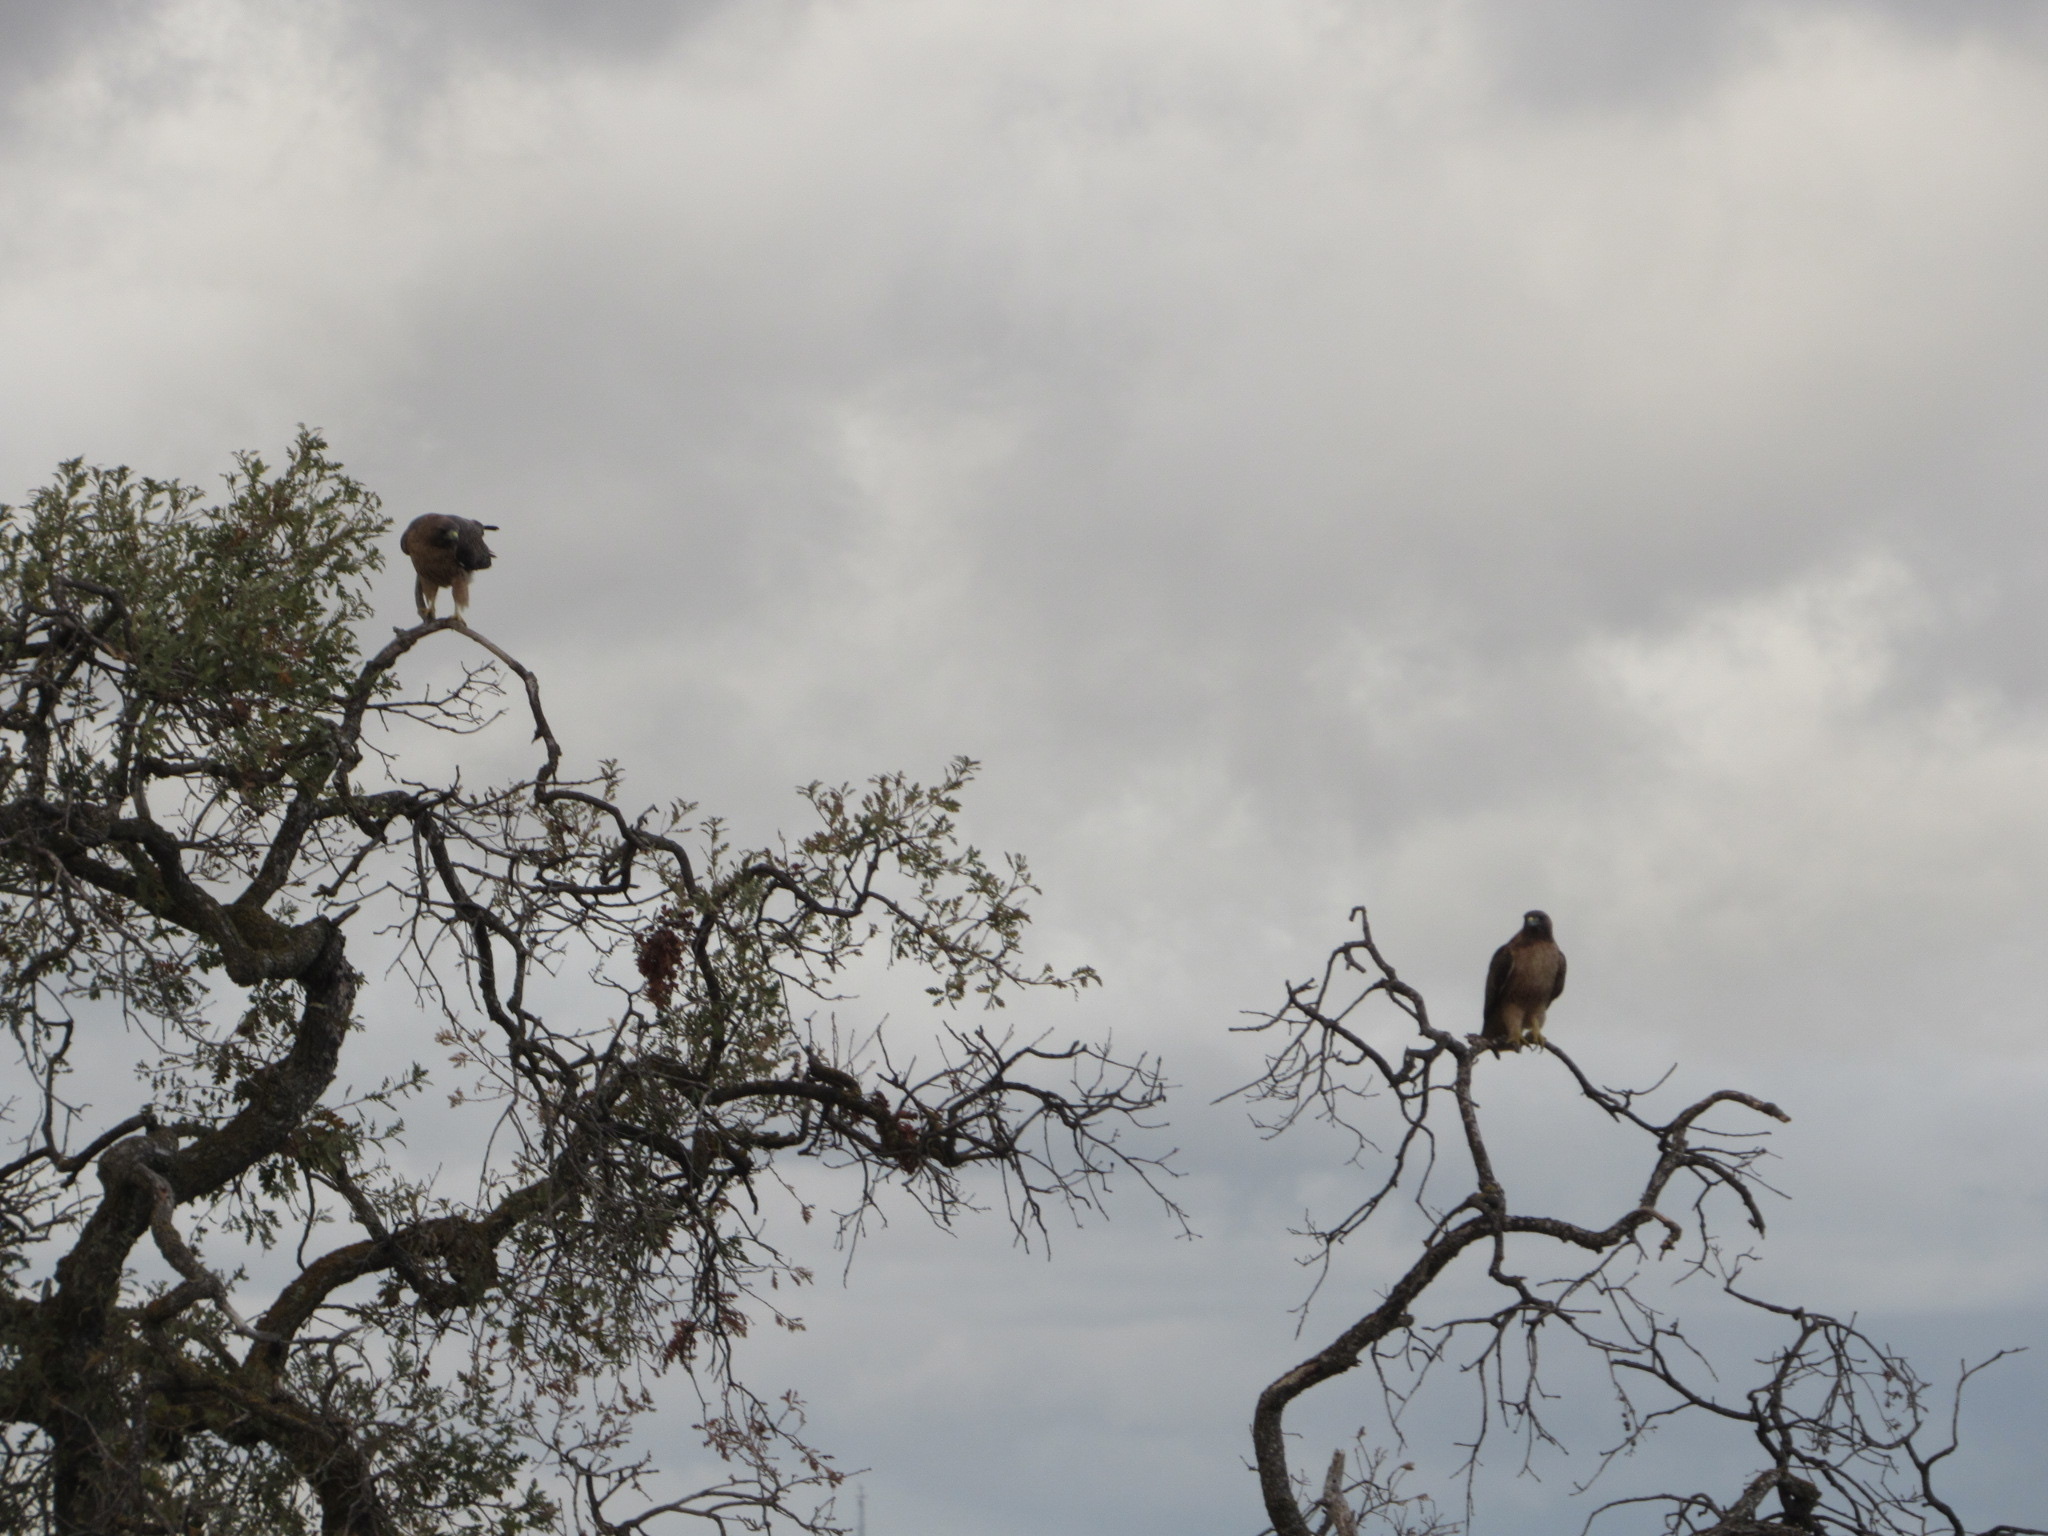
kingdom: Animalia
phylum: Chordata
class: Aves
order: Accipitriformes
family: Accipitridae
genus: Buteo
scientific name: Buteo jamaicensis
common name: Red-tailed hawk
